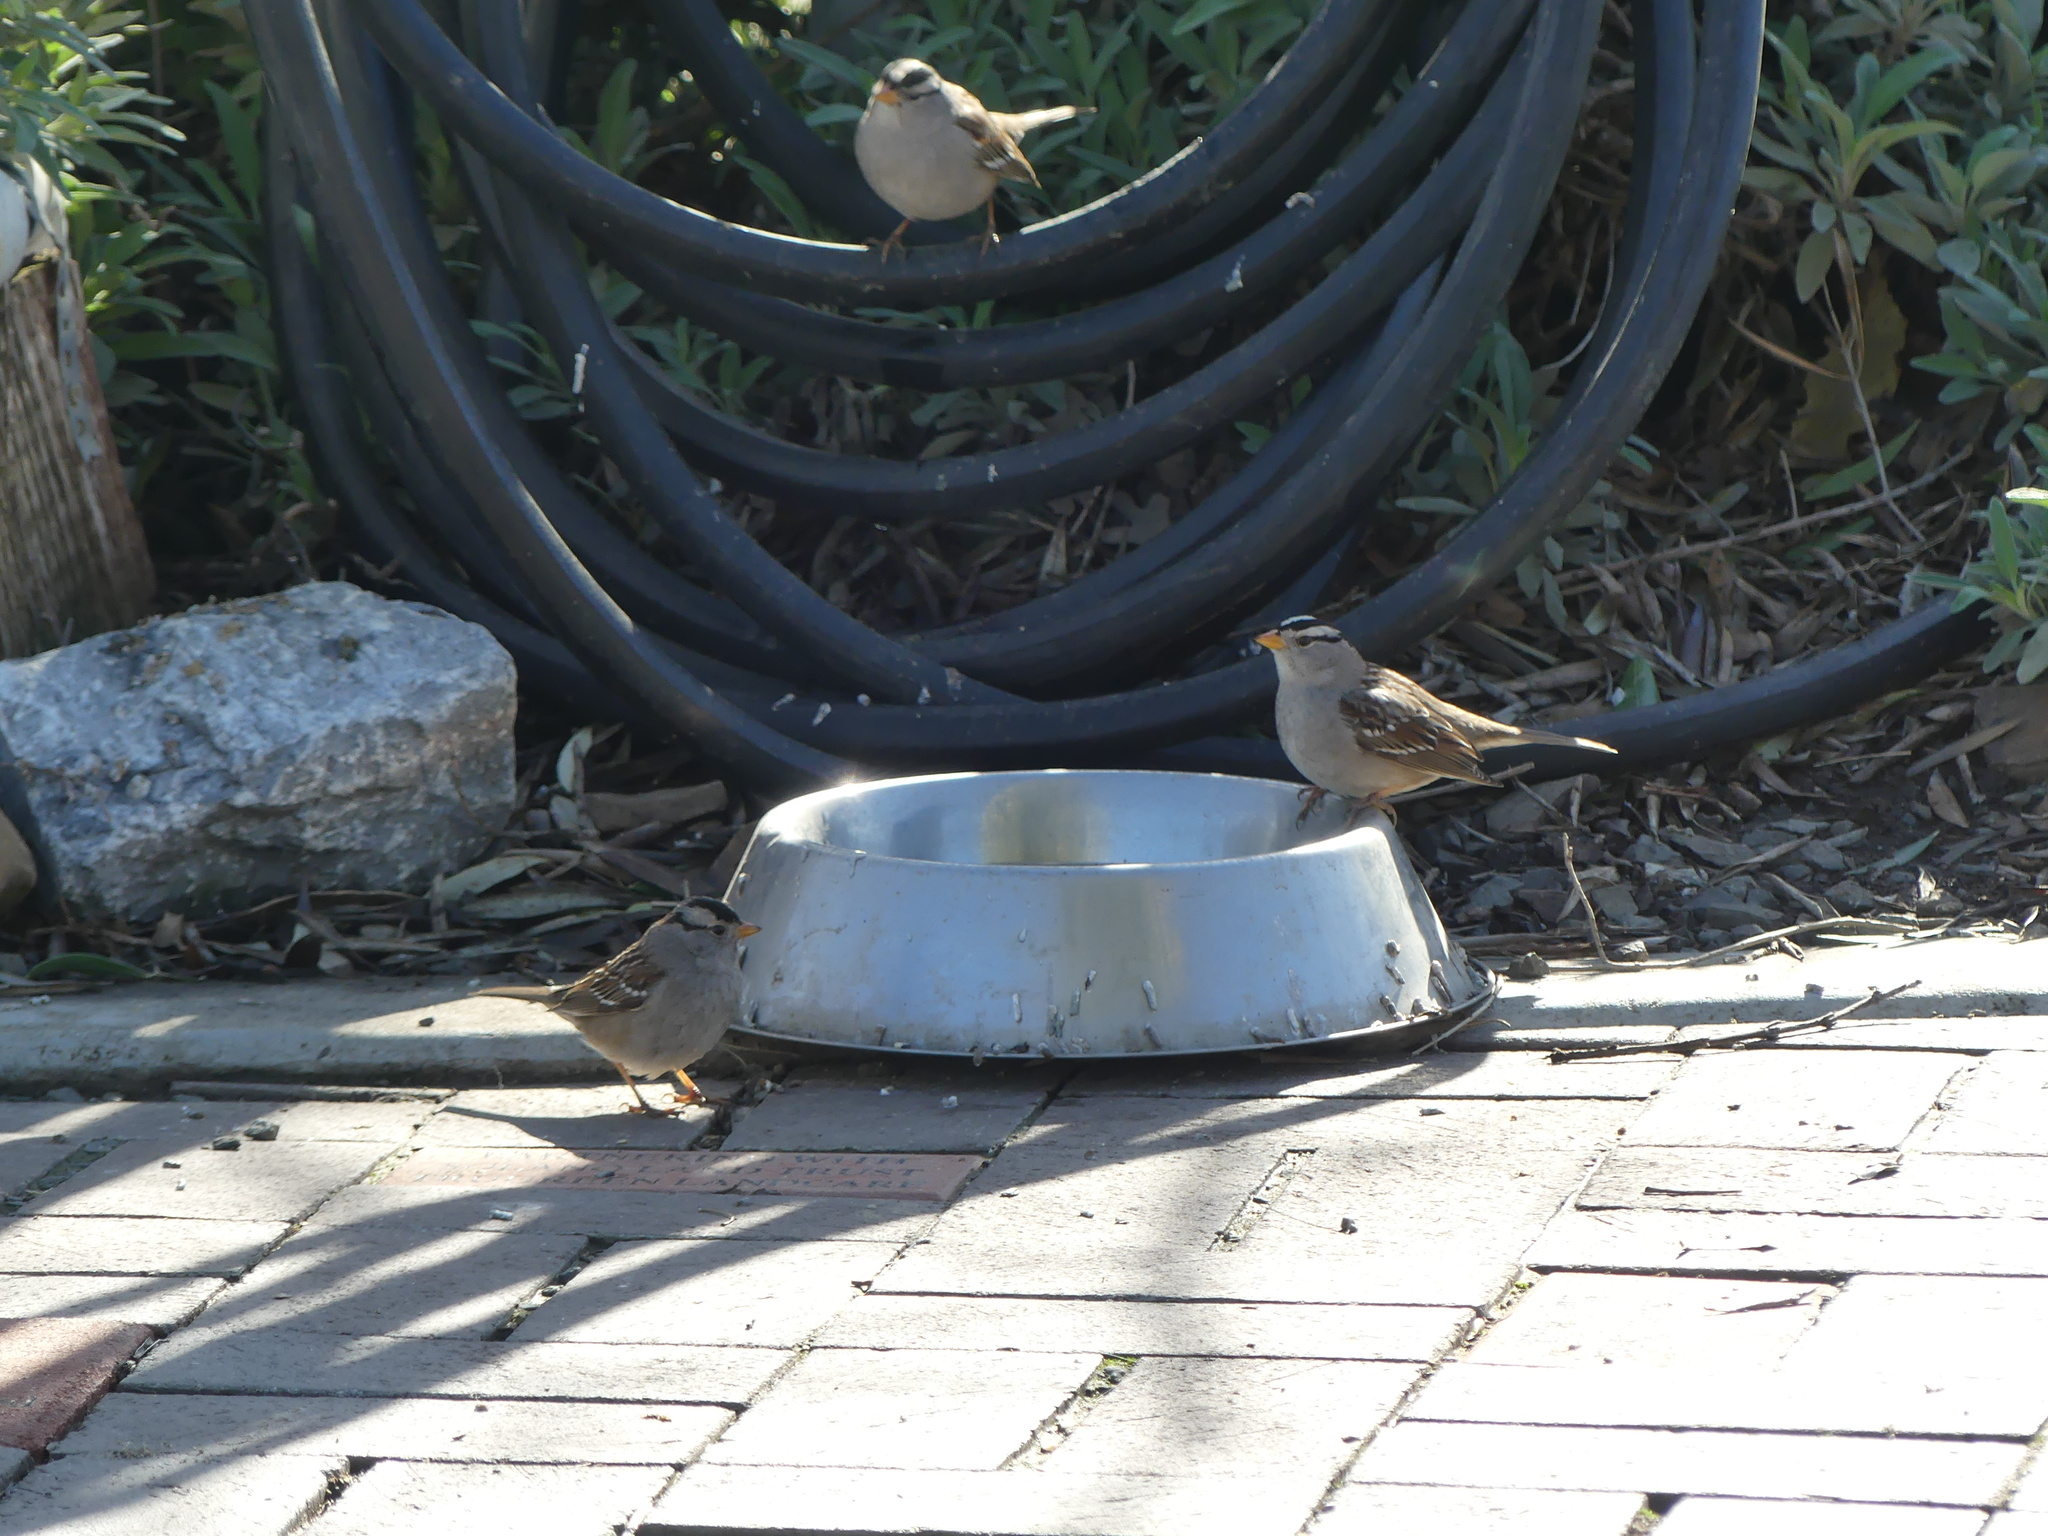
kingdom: Animalia
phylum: Chordata
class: Aves
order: Passeriformes
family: Passerellidae
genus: Zonotrichia
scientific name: Zonotrichia leucophrys
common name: White-crowned sparrow
